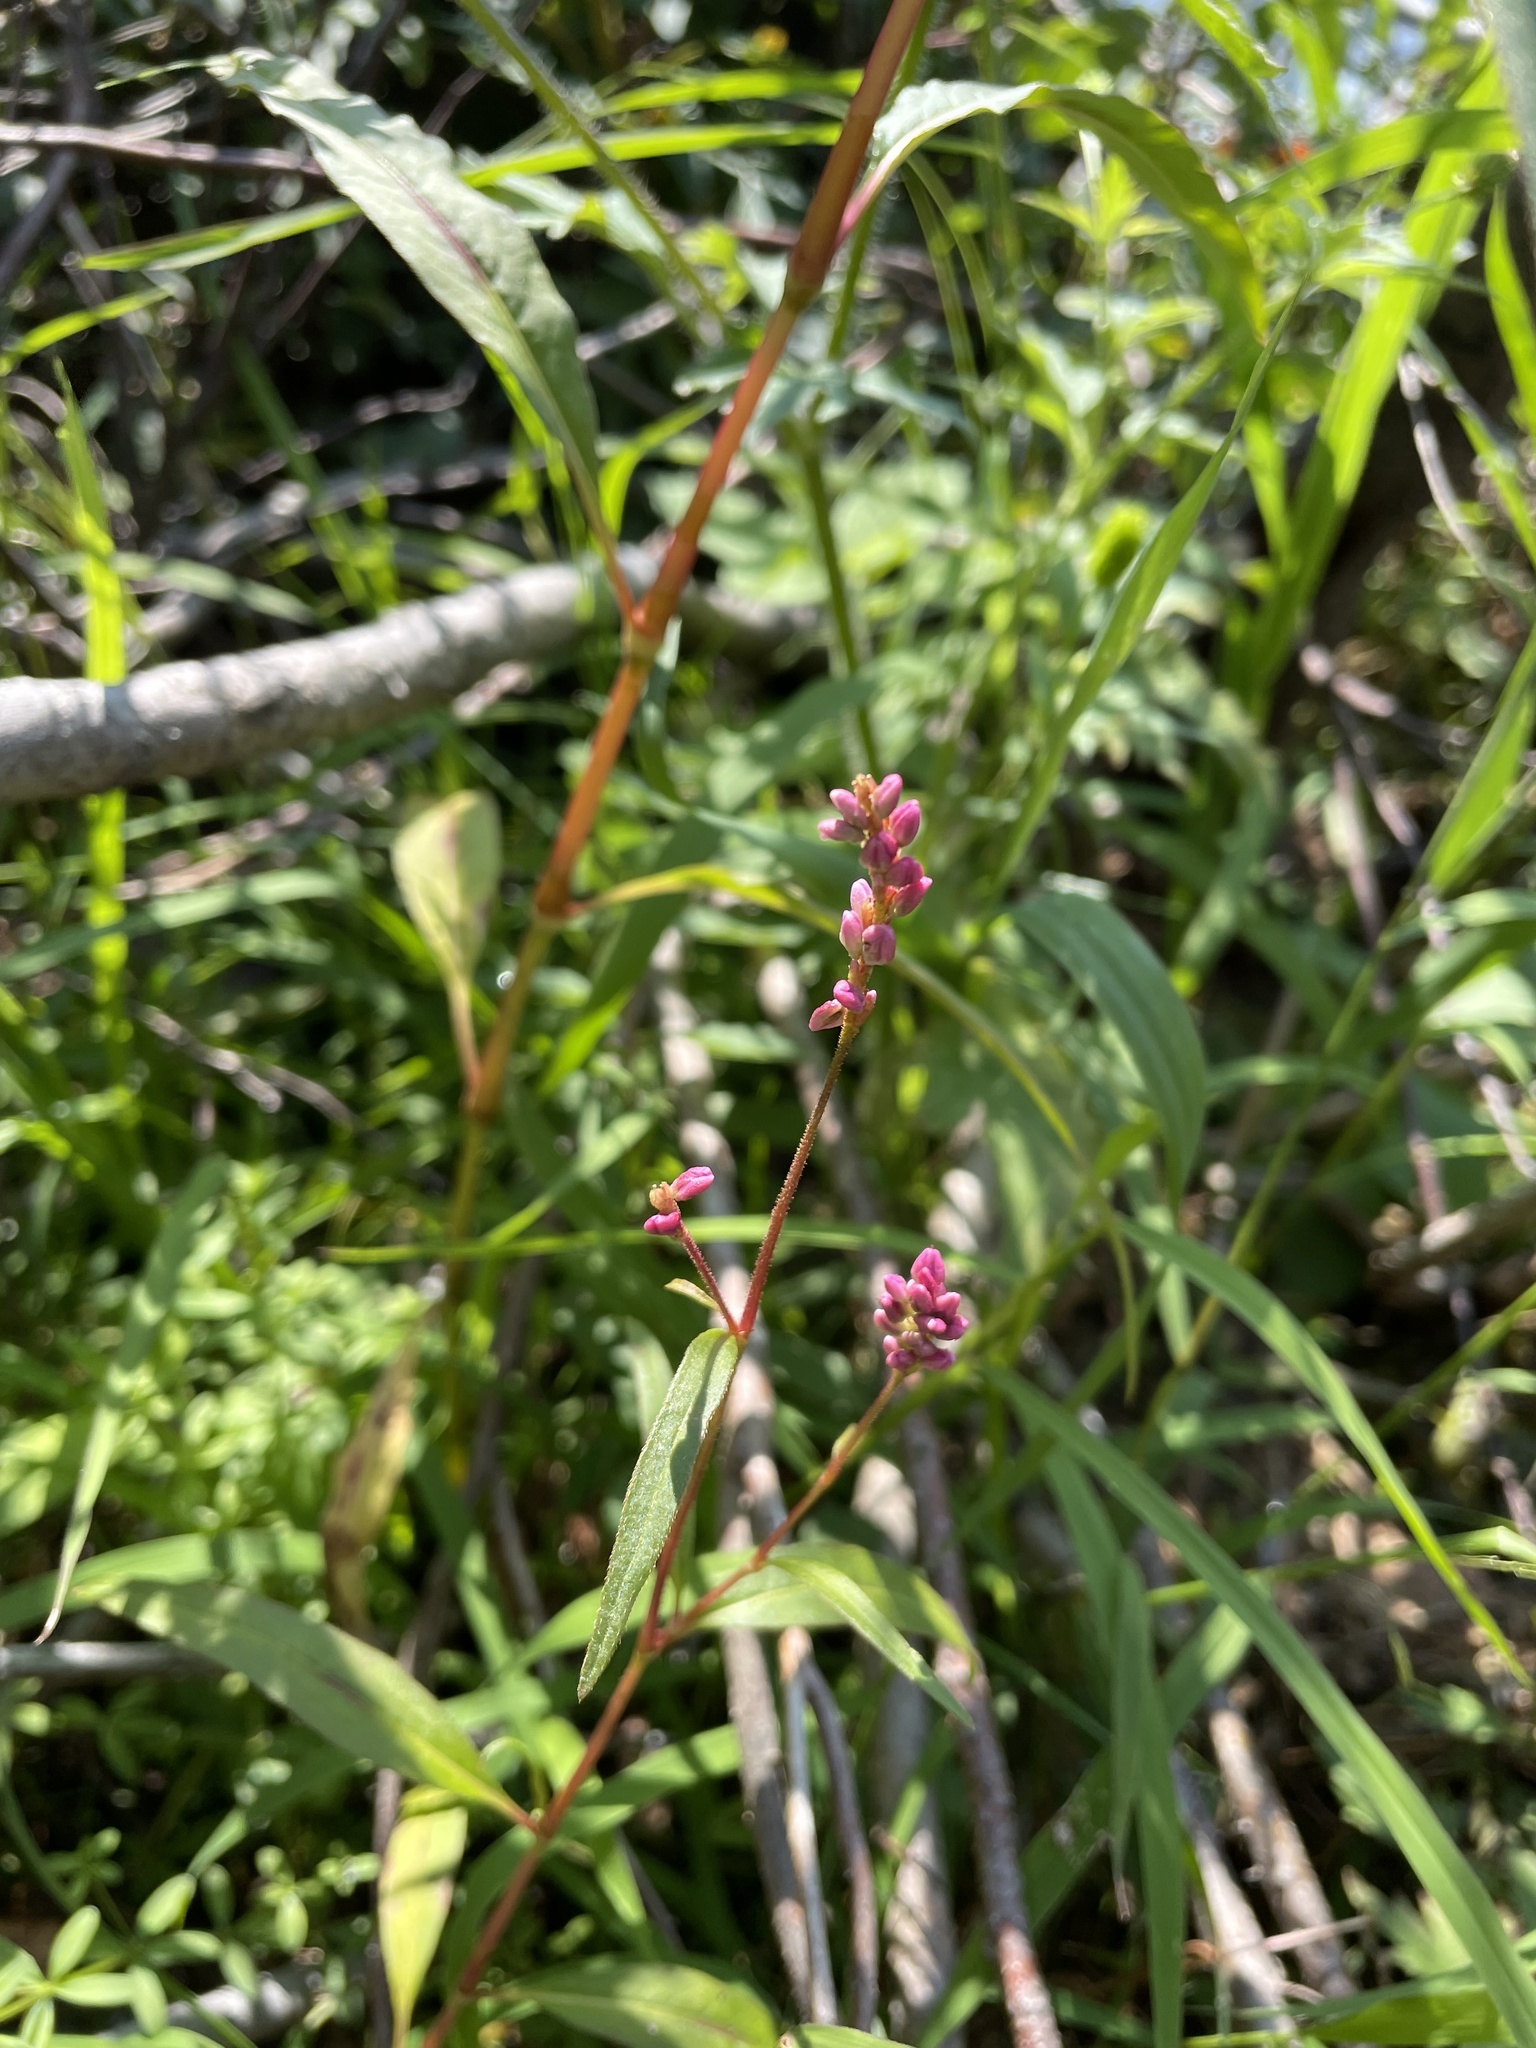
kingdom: Plantae
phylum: Tracheophyta
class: Magnoliopsida
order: Caryophyllales
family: Polygonaceae
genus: Persicaria
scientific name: Persicaria careyi
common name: Carey's smartweed
